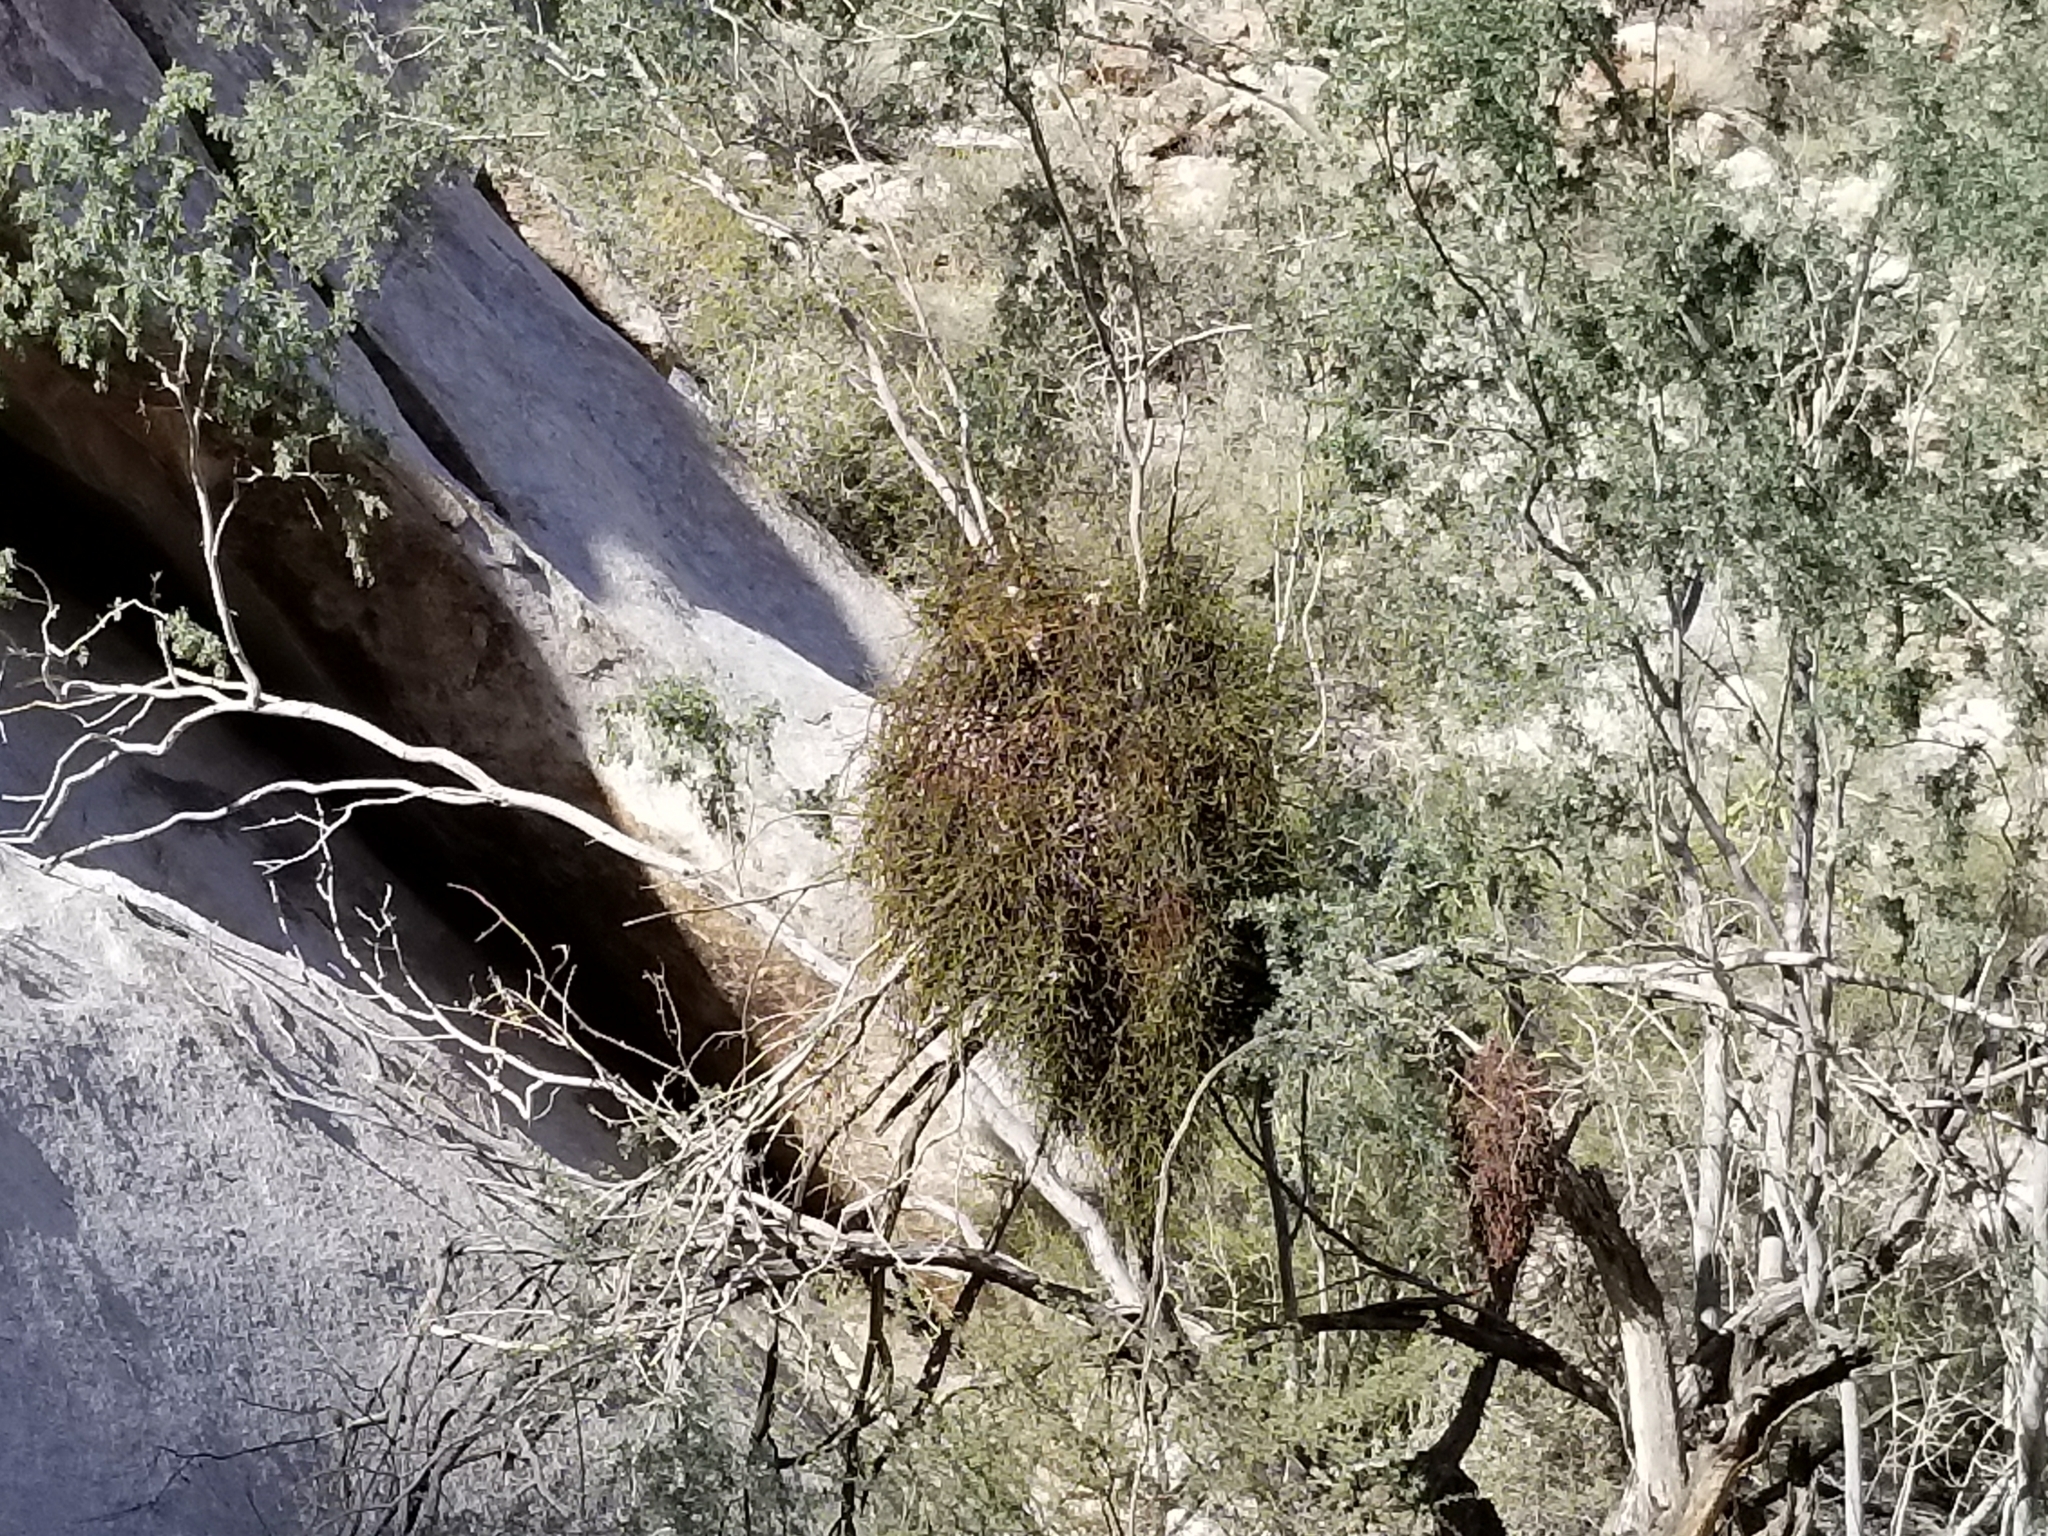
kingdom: Plantae
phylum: Tracheophyta
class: Magnoliopsida
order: Fabales
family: Fabaceae
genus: Olneya
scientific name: Olneya tesota
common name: Desert ironwood
